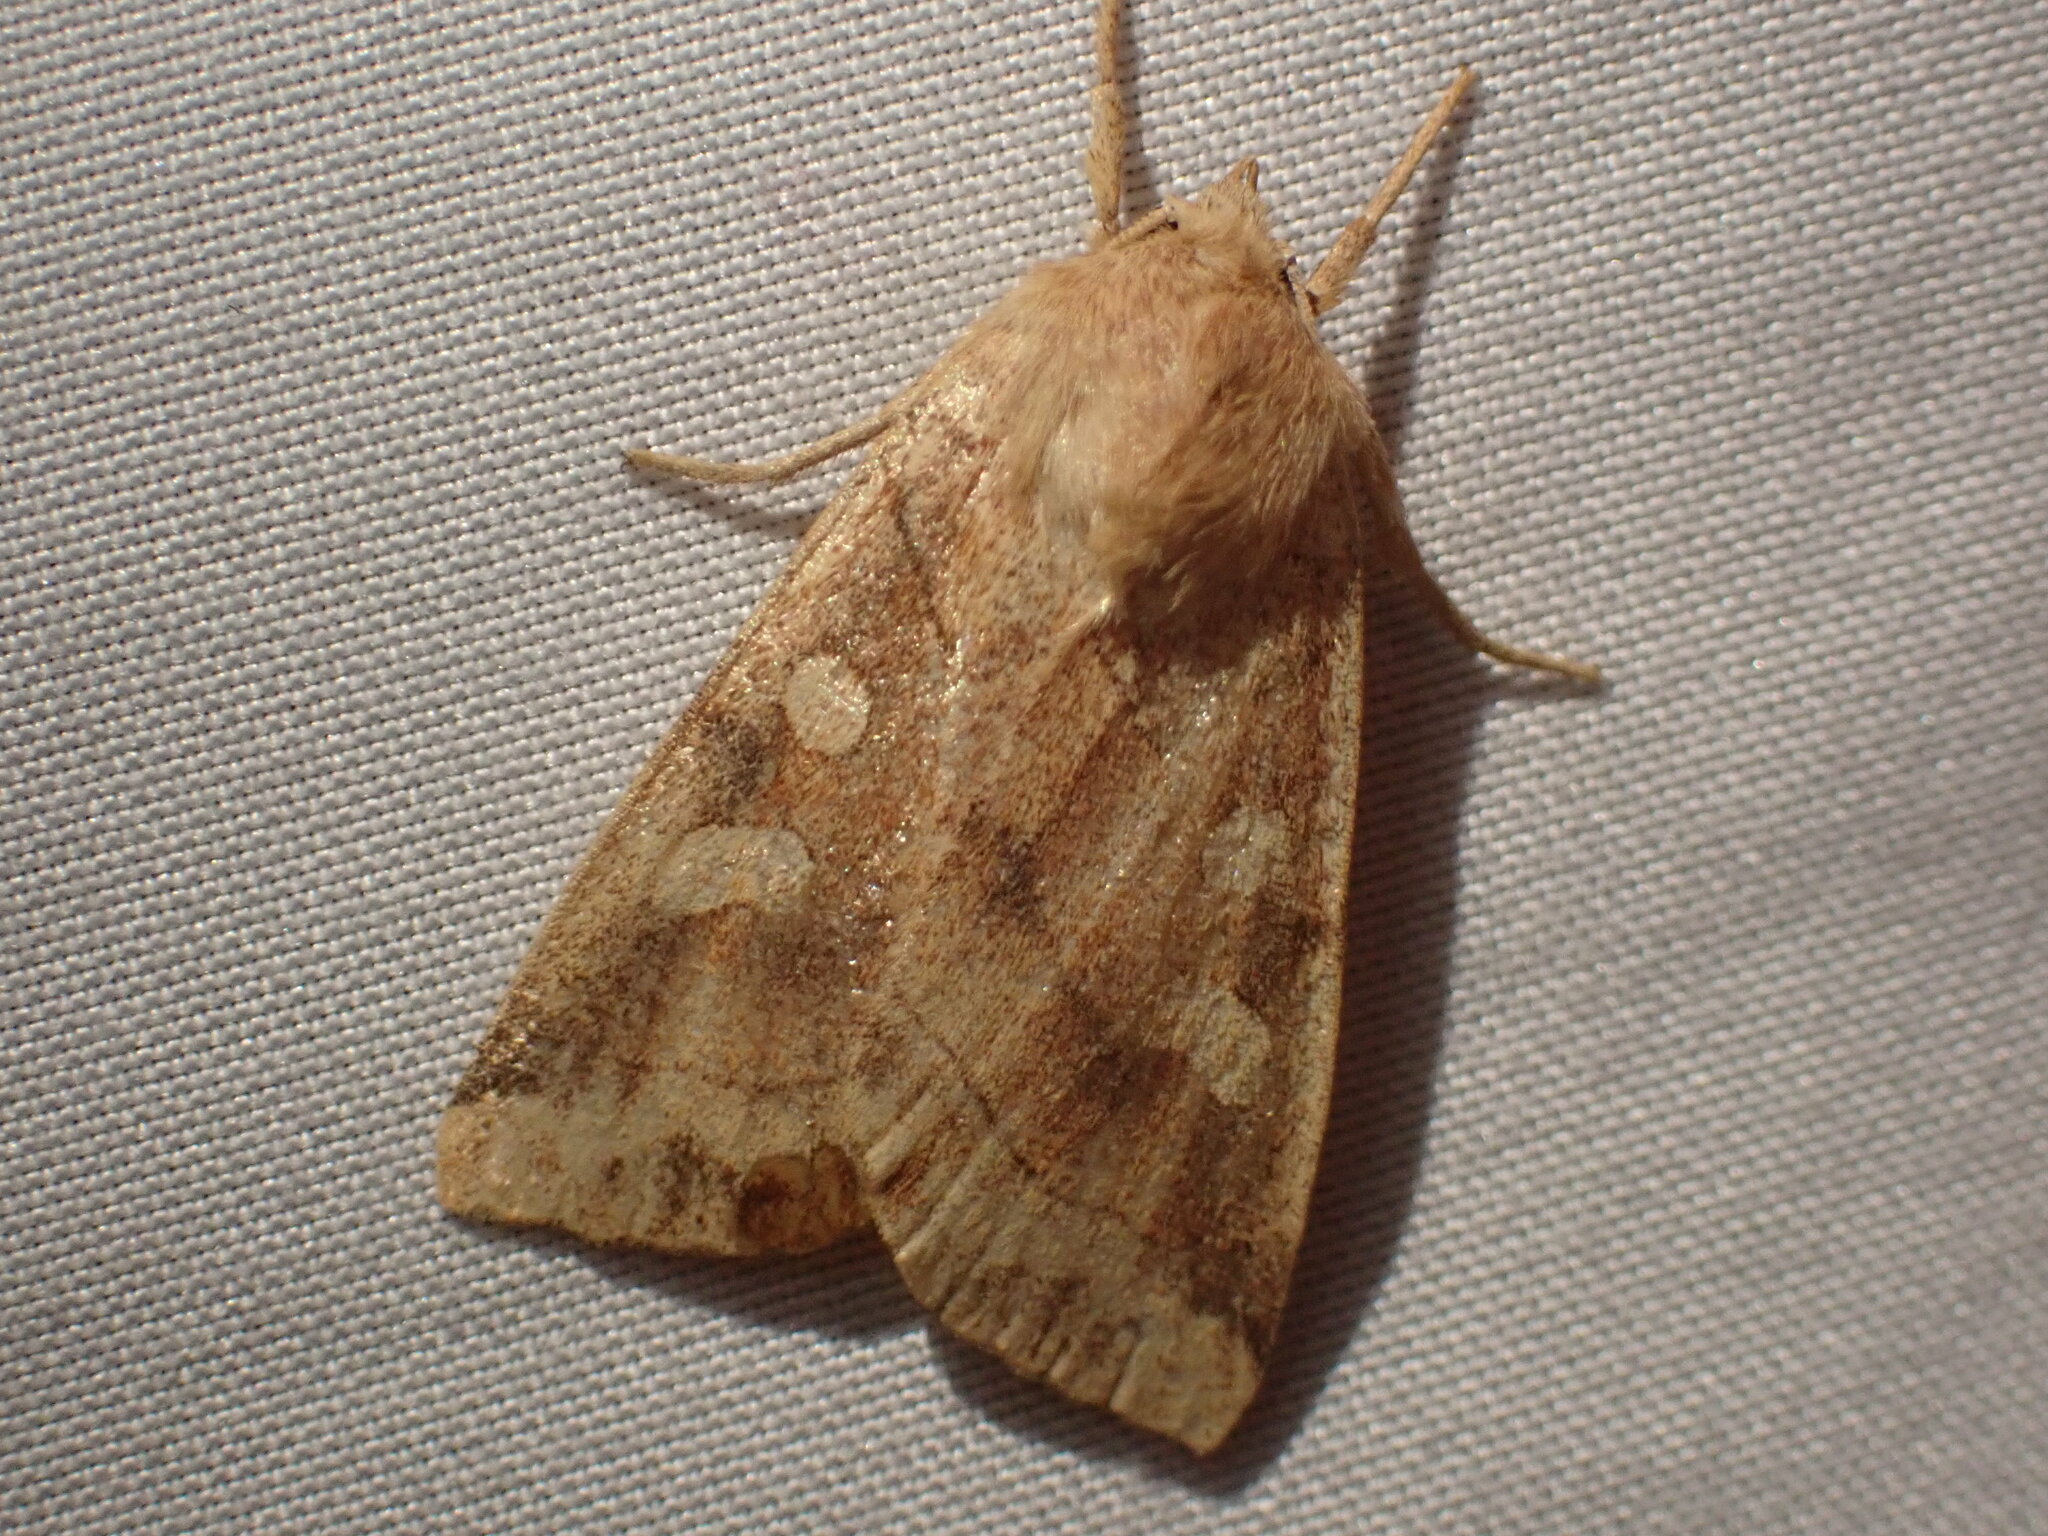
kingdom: Animalia
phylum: Arthropoda
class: Insecta
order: Lepidoptera
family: Noctuidae
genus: Enargia
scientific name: Enargia decolor
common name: Aspen twoleaf tier moth
